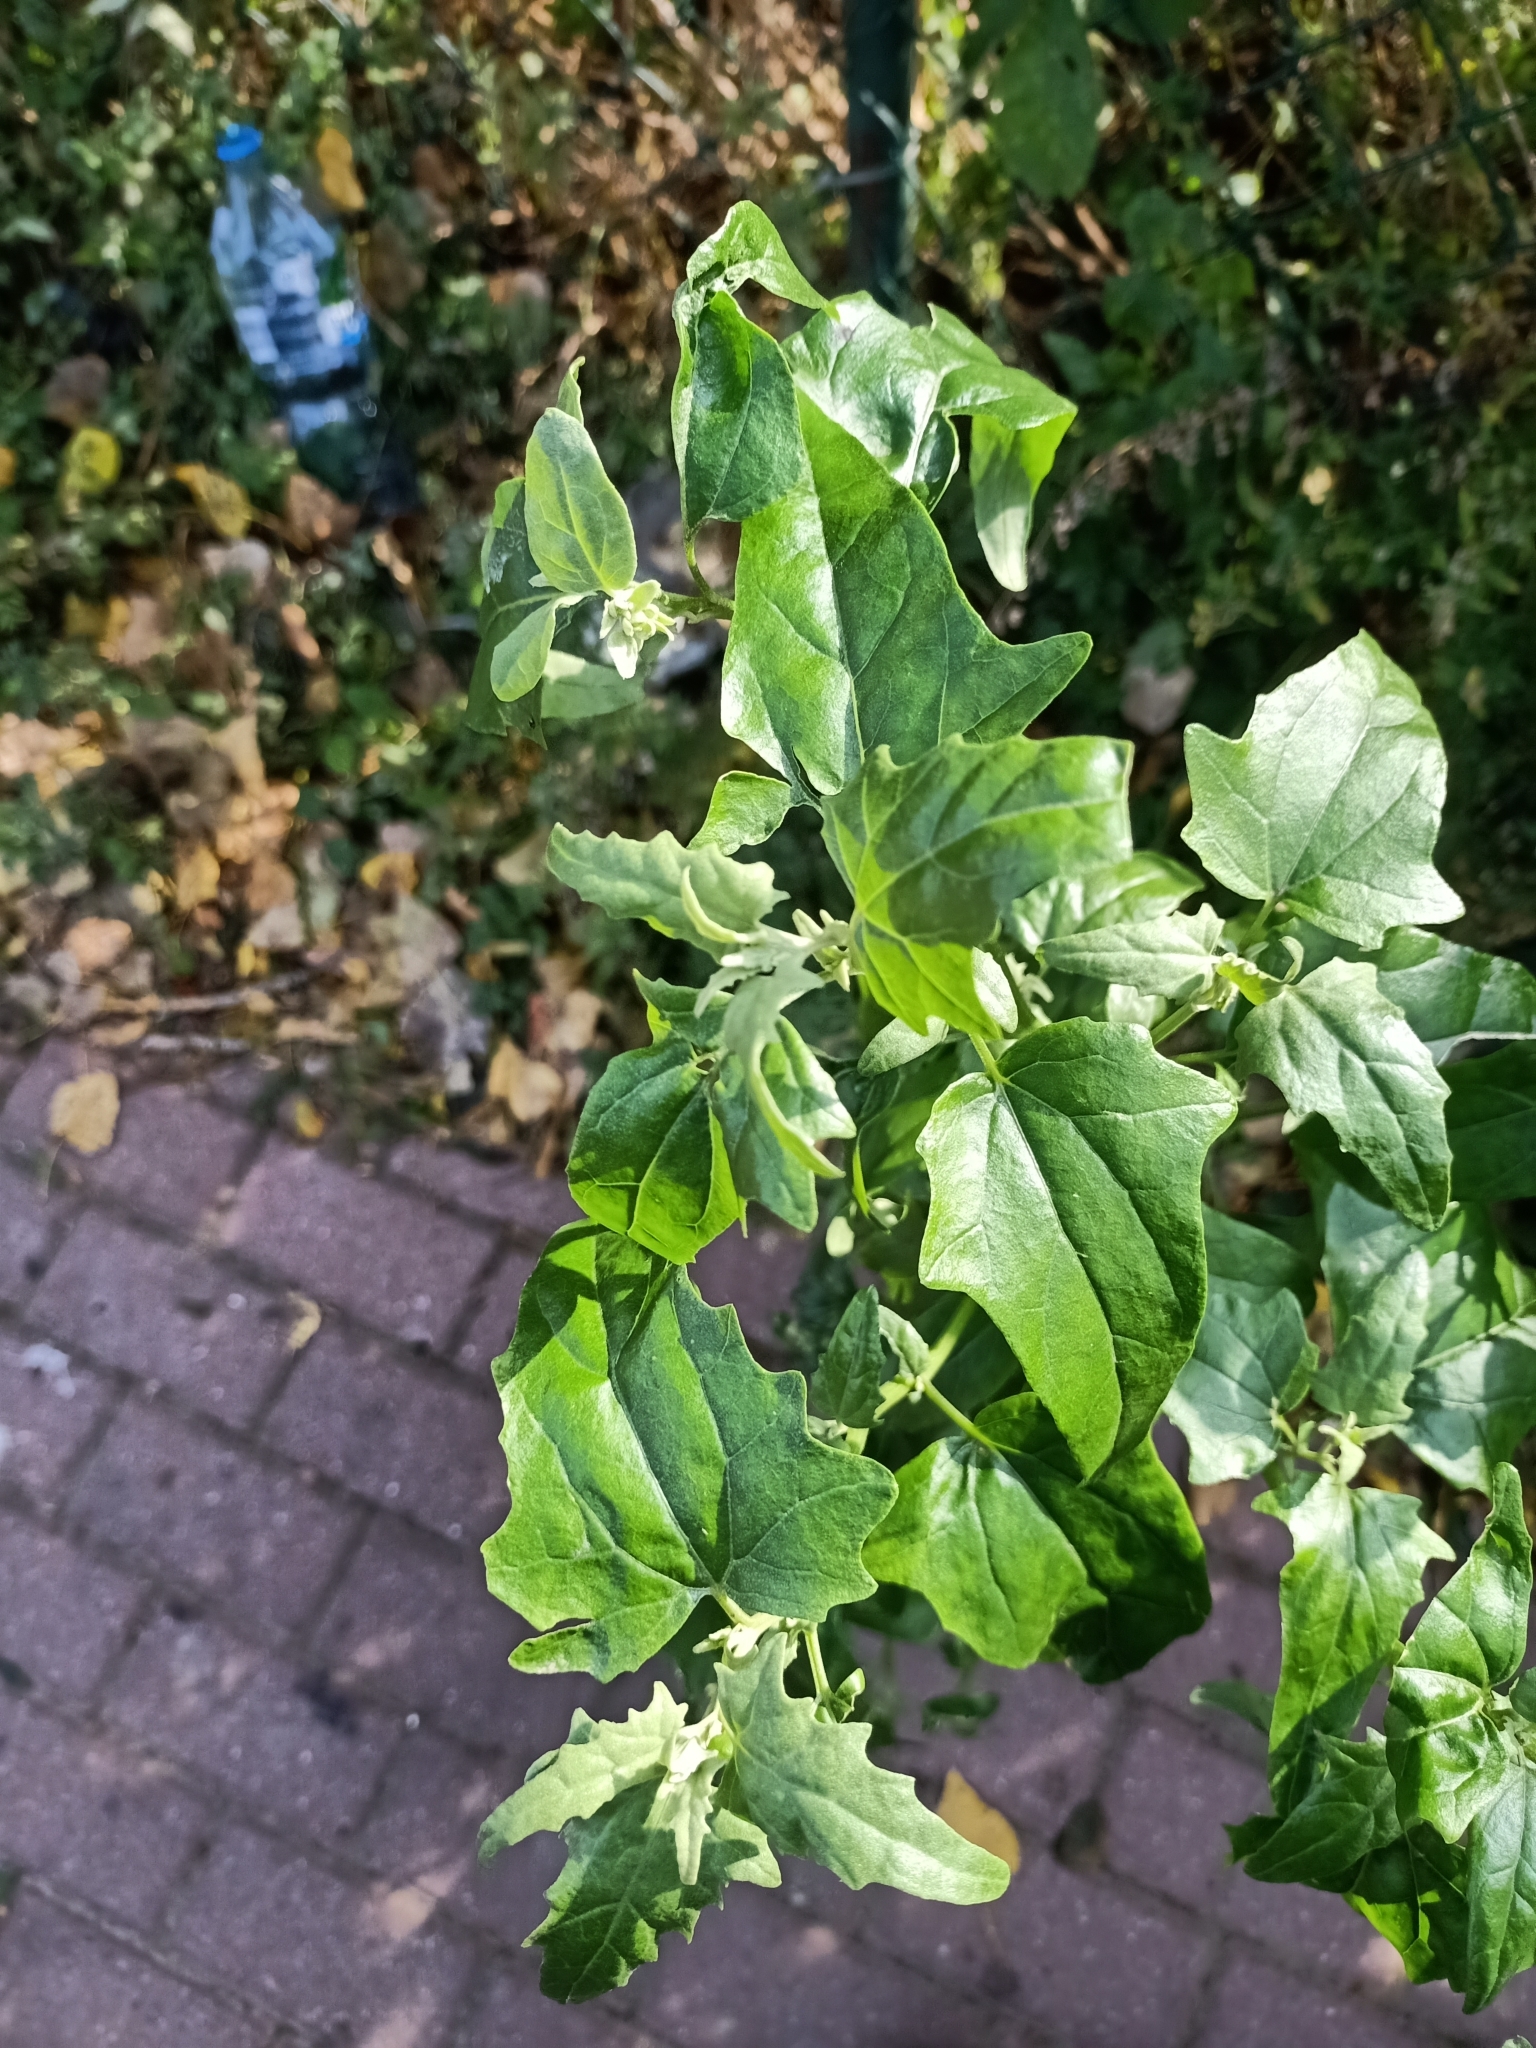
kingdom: Plantae
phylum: Tracheophyta
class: Magnoliopsida
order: Caryophyllales
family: Amaranthaceae
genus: Atriplex
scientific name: Atriplex sagittata
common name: Purple orache
